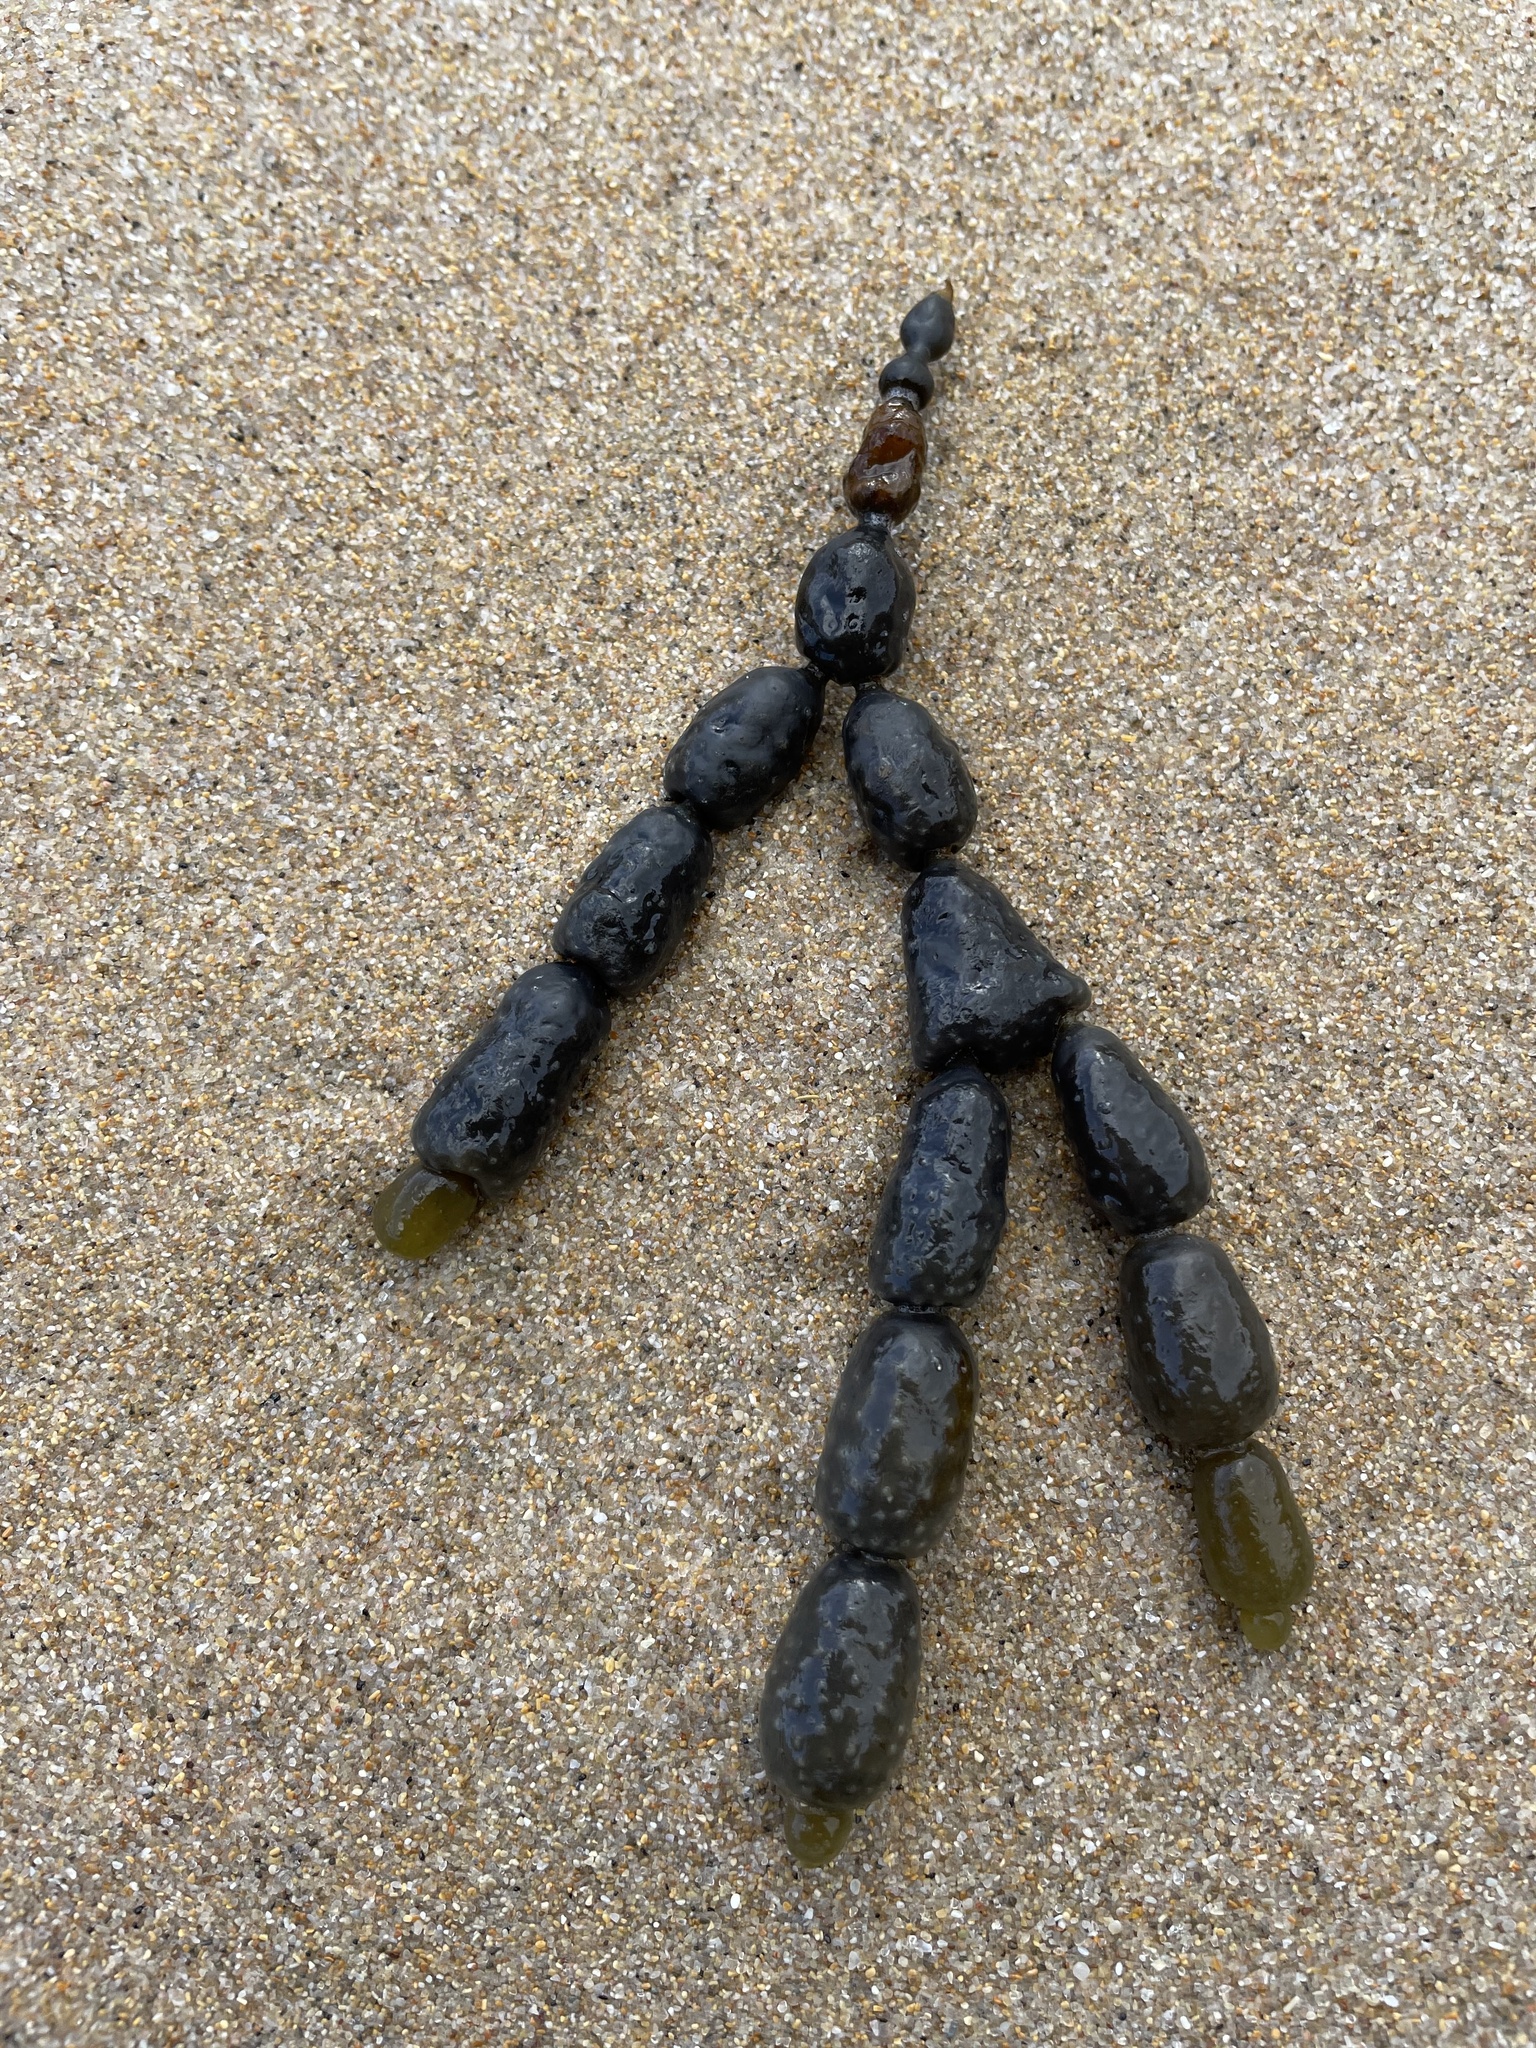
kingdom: Chromista
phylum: Ochrophyta
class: Phaeophyceae
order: Fucales
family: Hormosiraceae
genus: Hormosira
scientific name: Hormosira banksii
